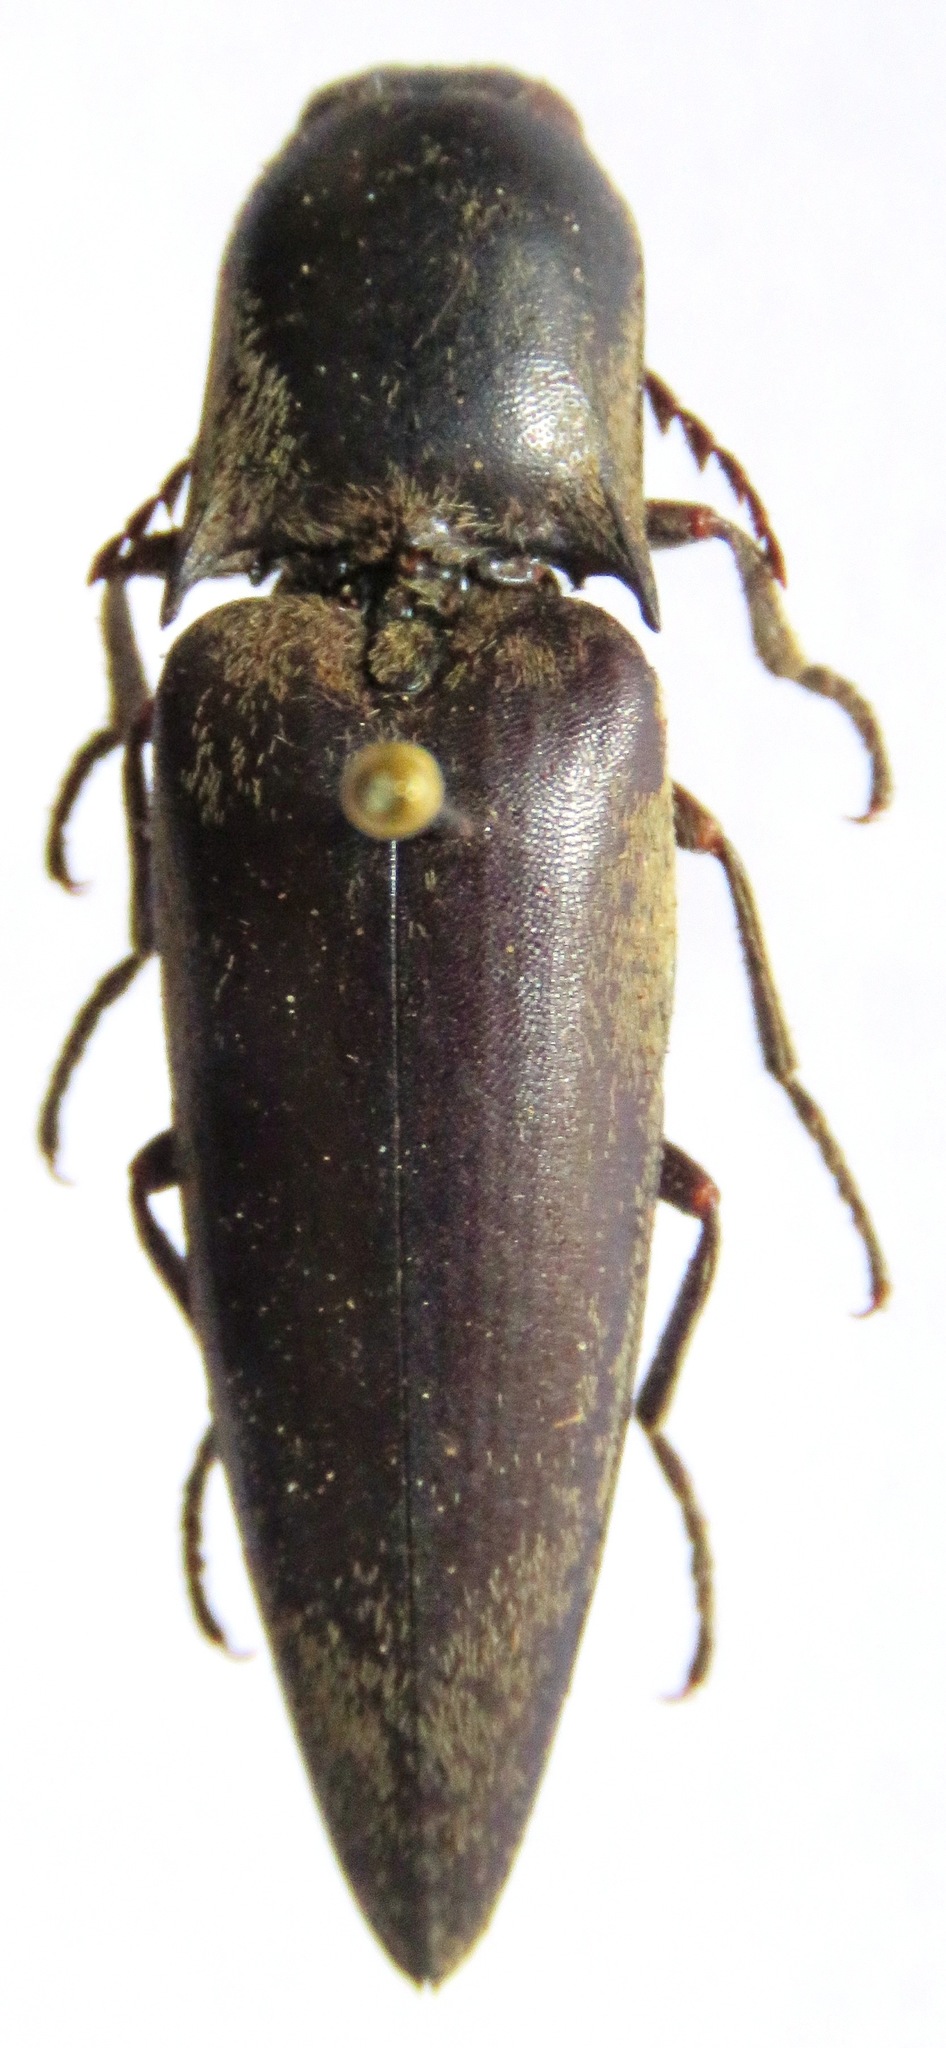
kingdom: Animalia
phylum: Arthropoda
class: Insecta
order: Coleoptera
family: Elateridae
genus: Orthostethus
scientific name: Orthostethus
